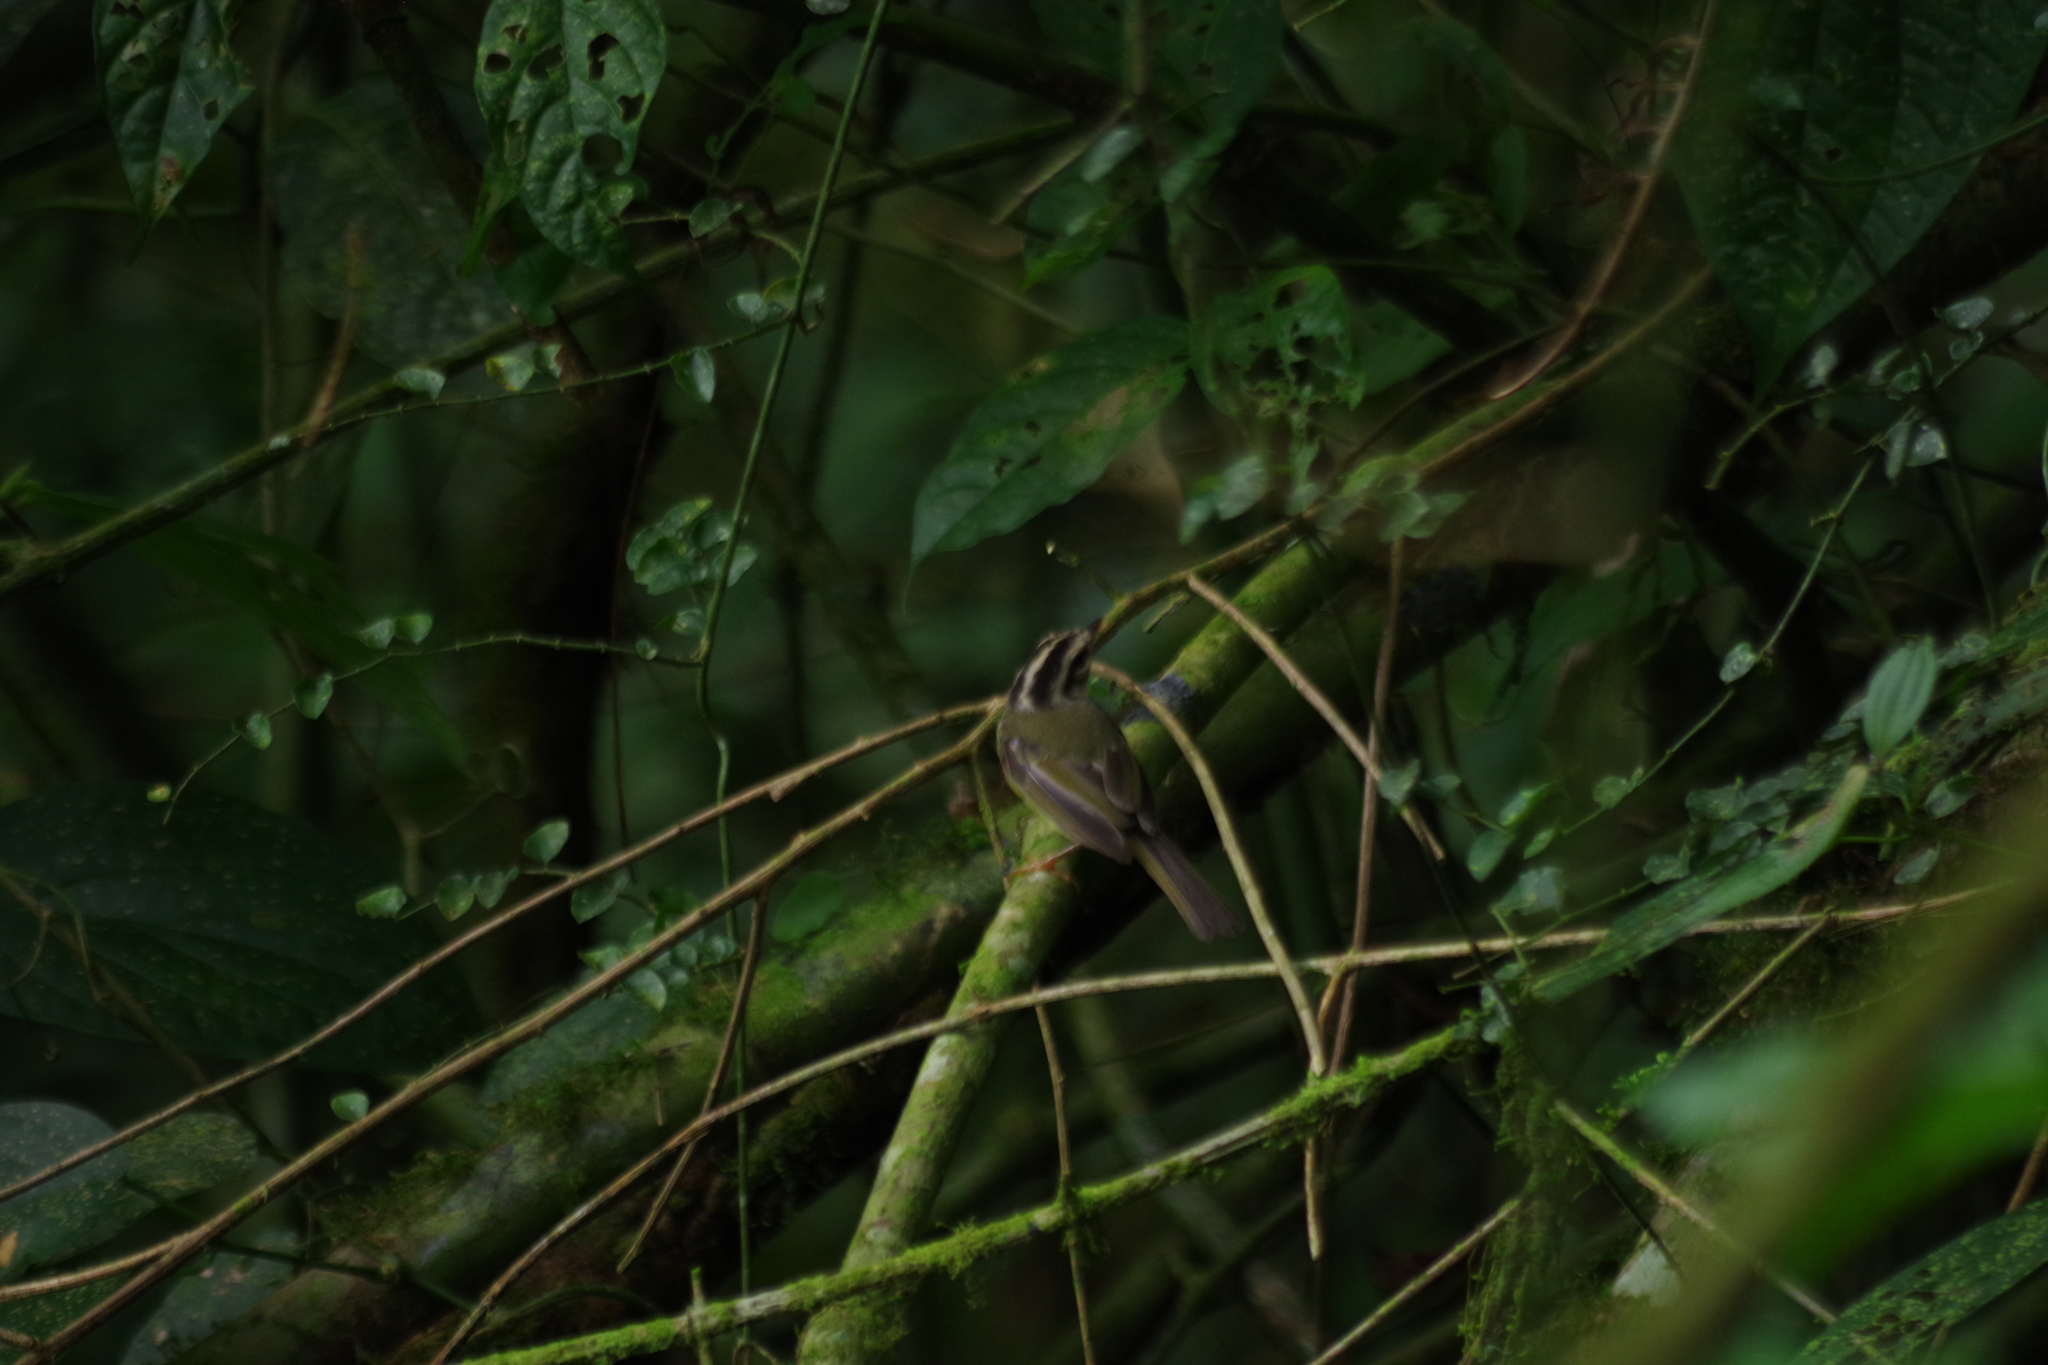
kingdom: Animalia
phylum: Chordata
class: Aves
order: Passeriformes
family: Parulidae
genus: Basileuterus
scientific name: Basileuterus melanotis
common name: Black-eared warbler
